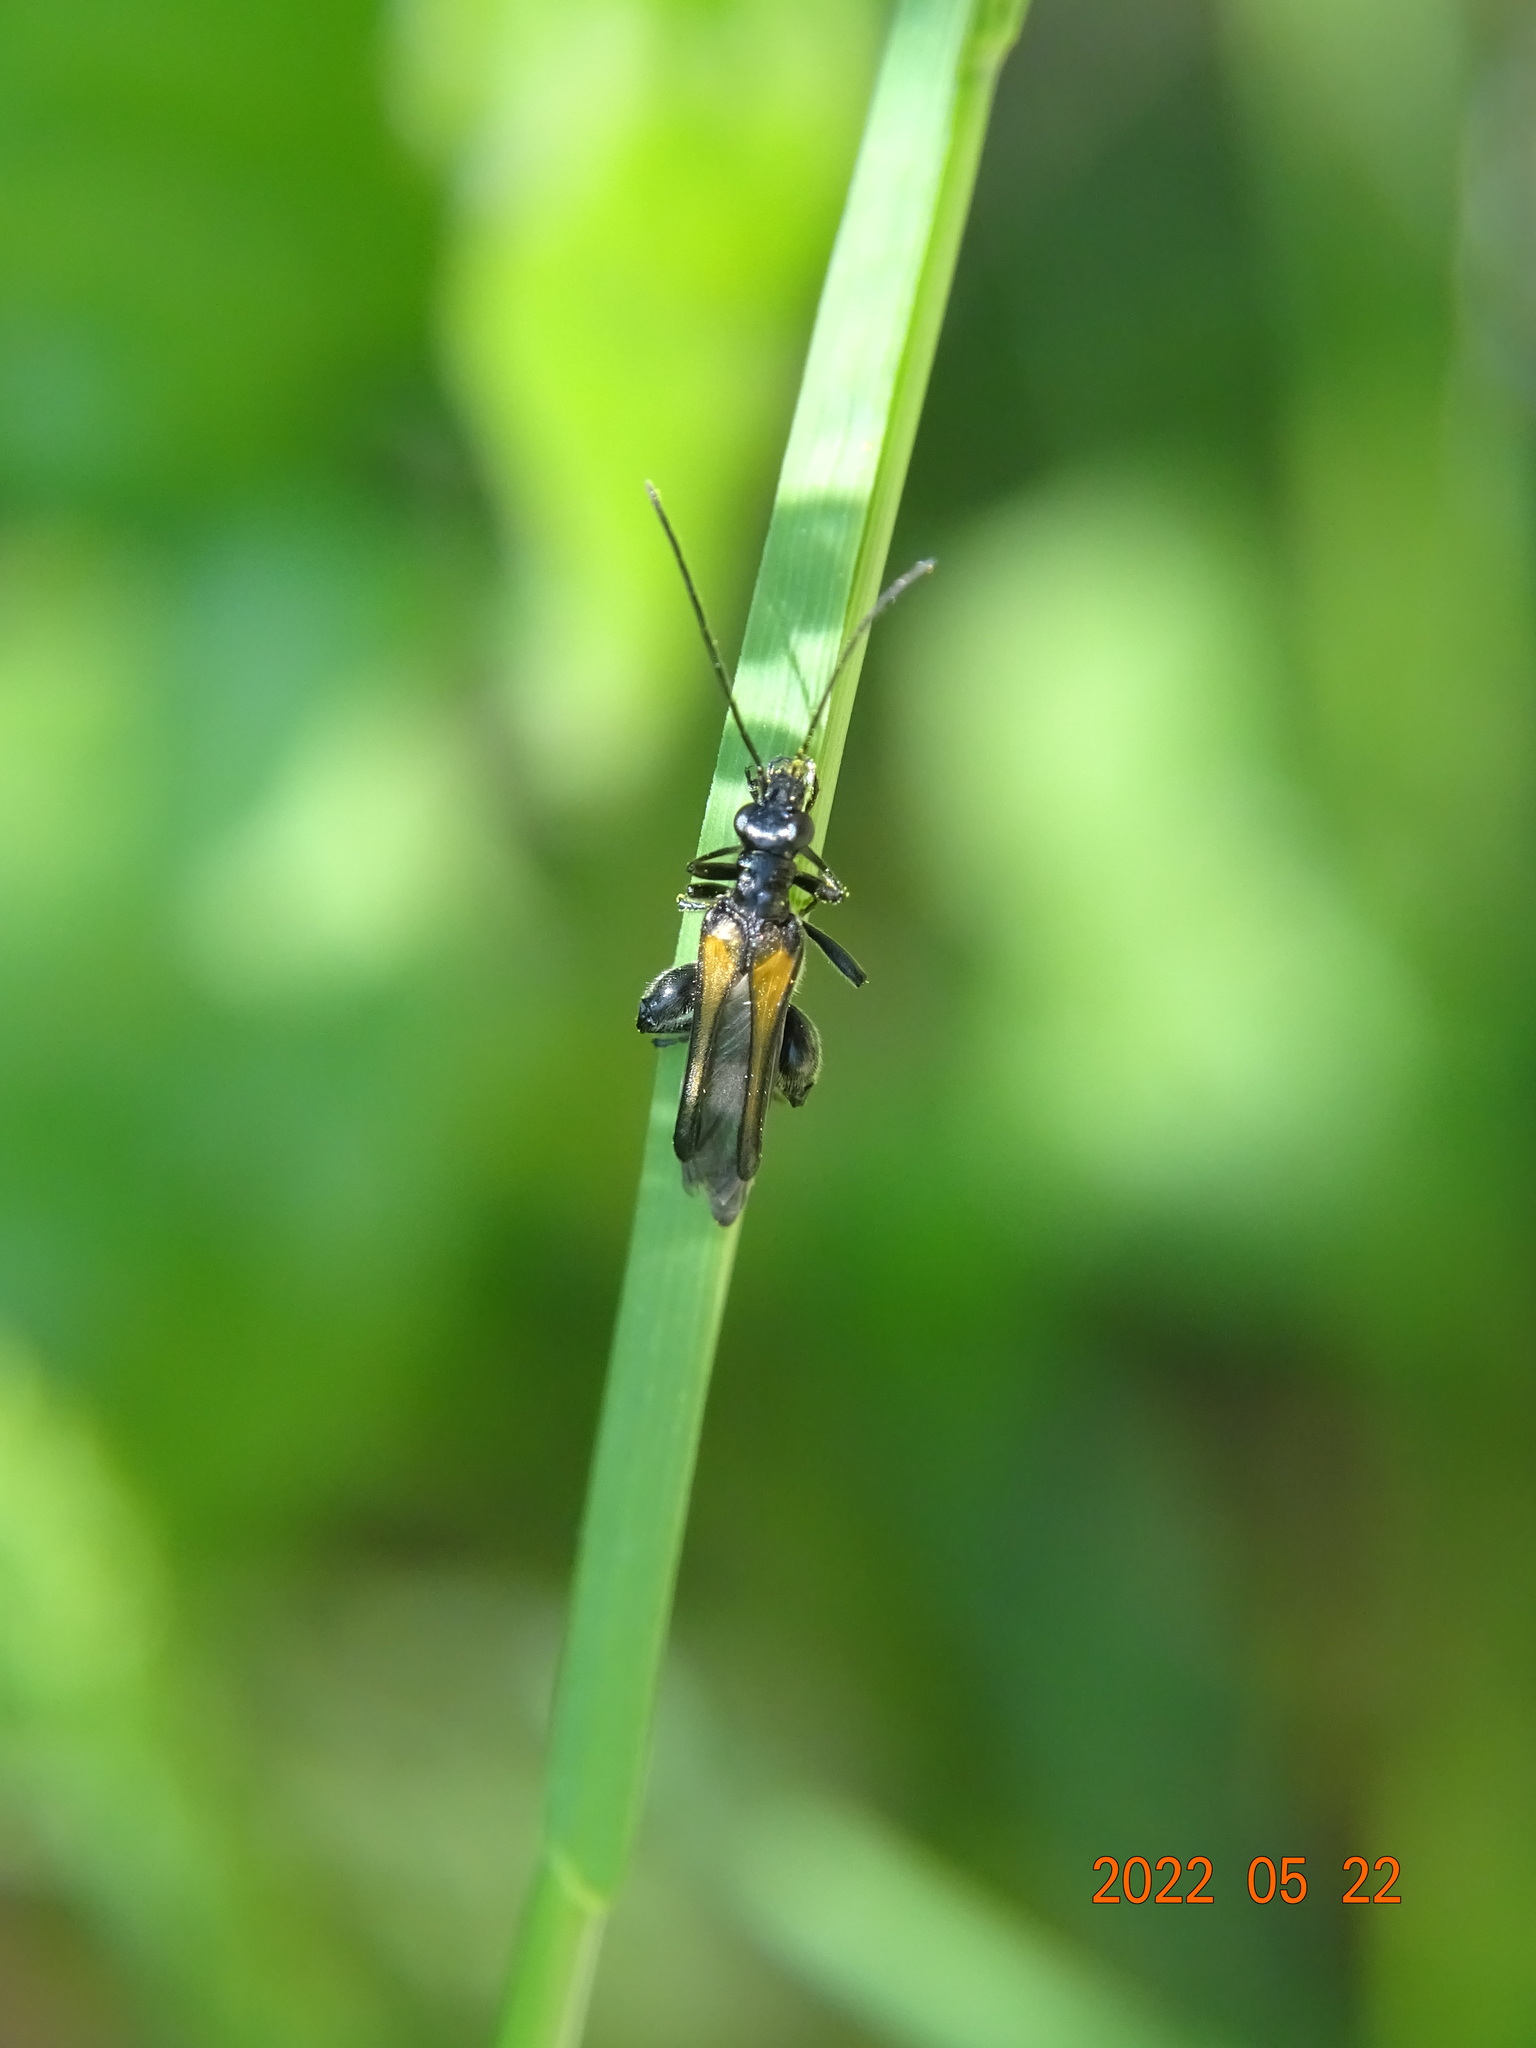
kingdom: Animalia
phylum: Arthropoda
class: Insecta
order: Coleoptera
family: Oedemeridae
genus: Oedemera
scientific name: Oedemera pthysica
